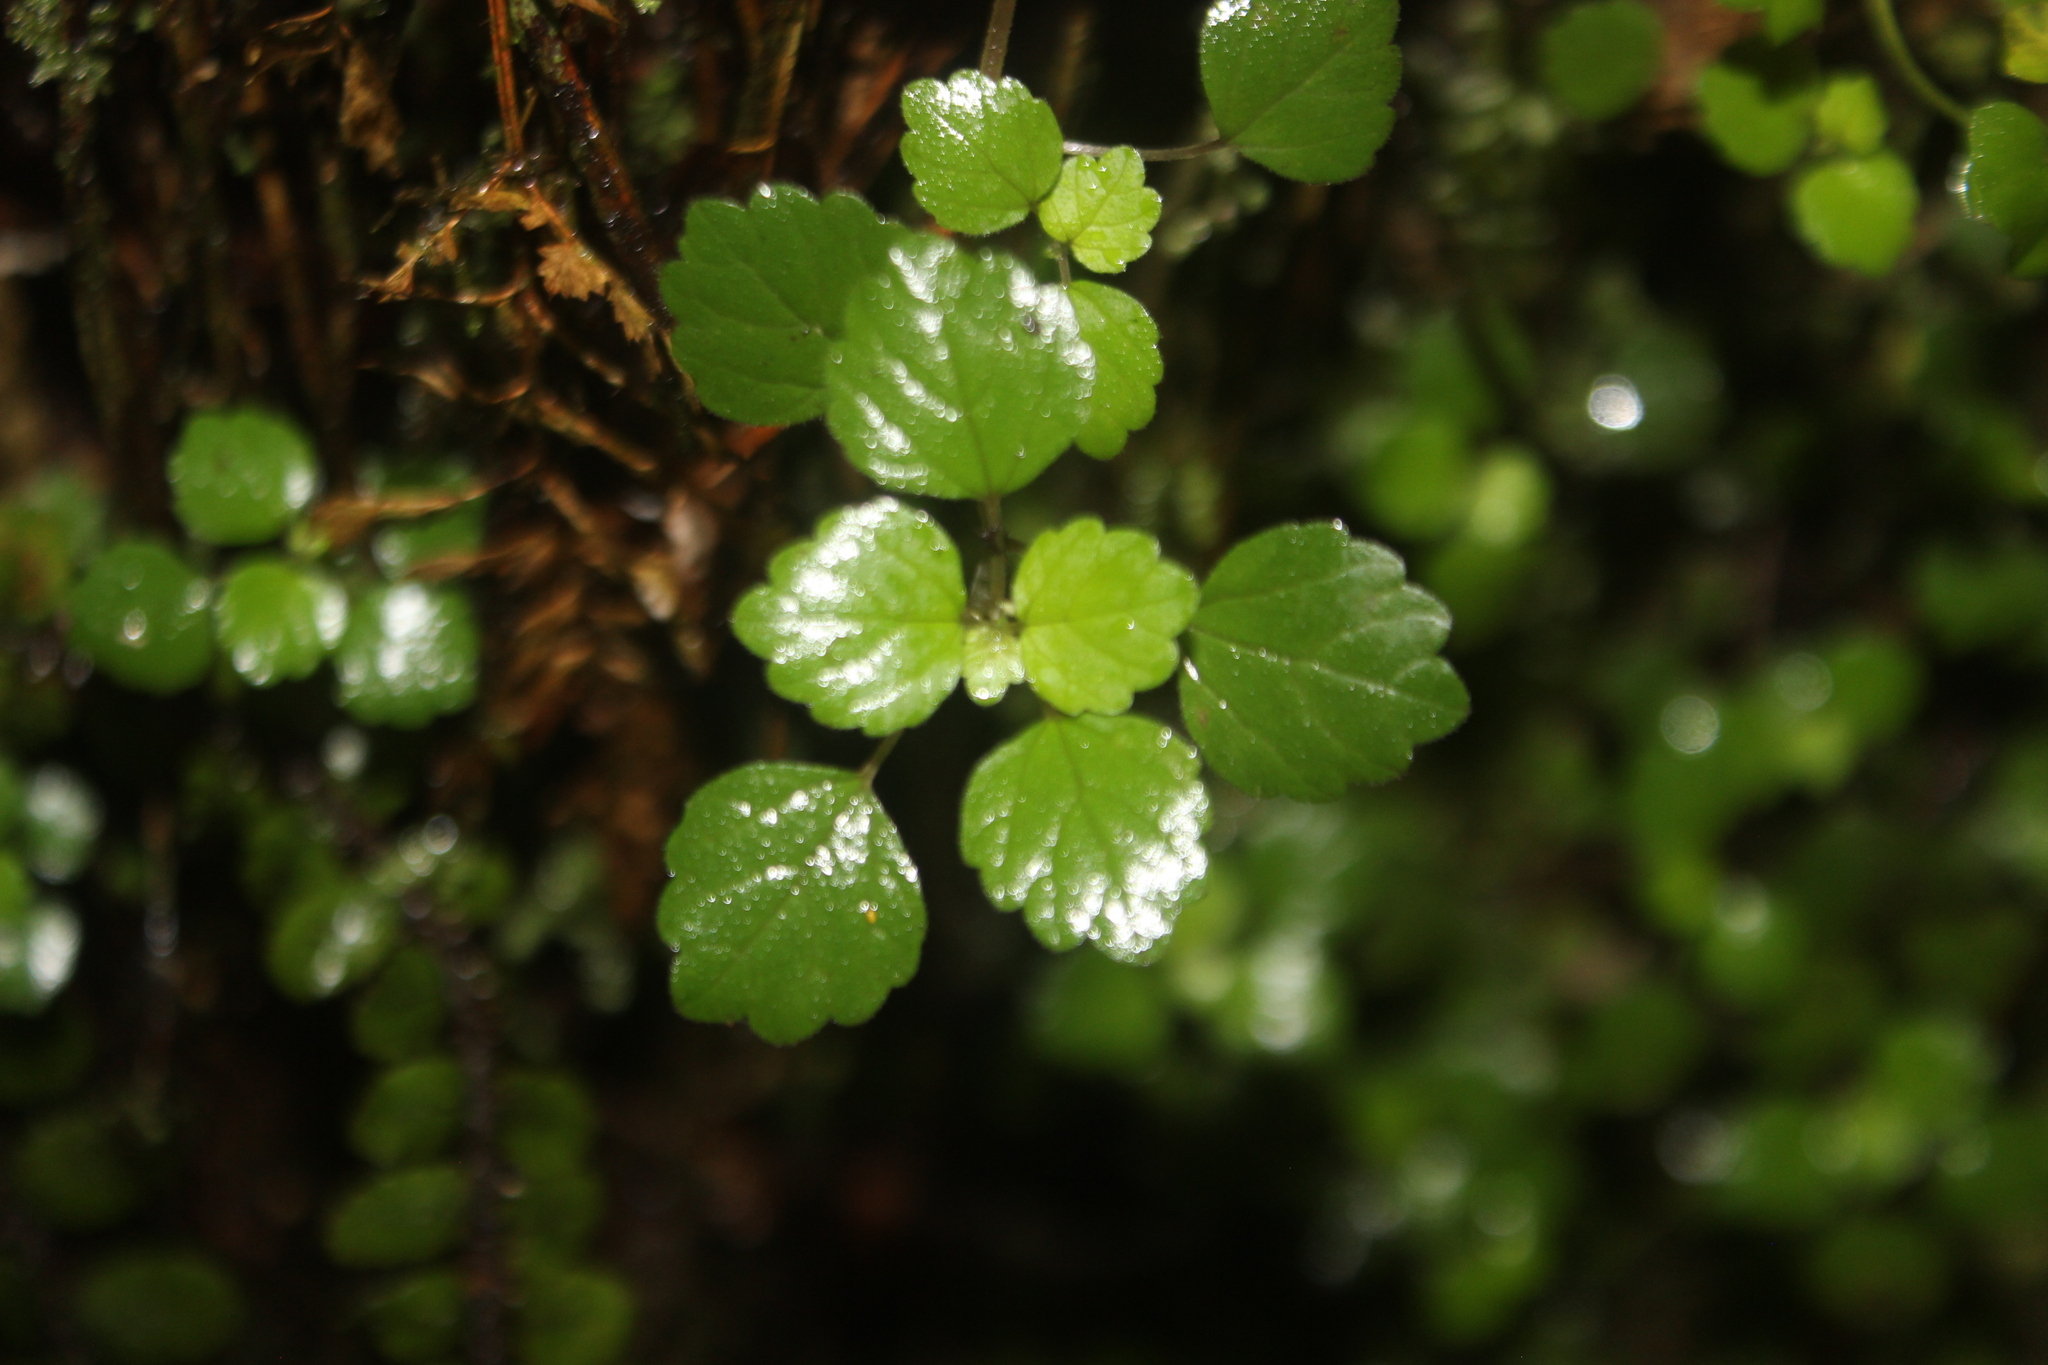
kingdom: Plantae
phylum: Tracheophyta
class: Magnoliopsida
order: Rosales
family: Urticaceae
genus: Australina
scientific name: Australina pusilla
